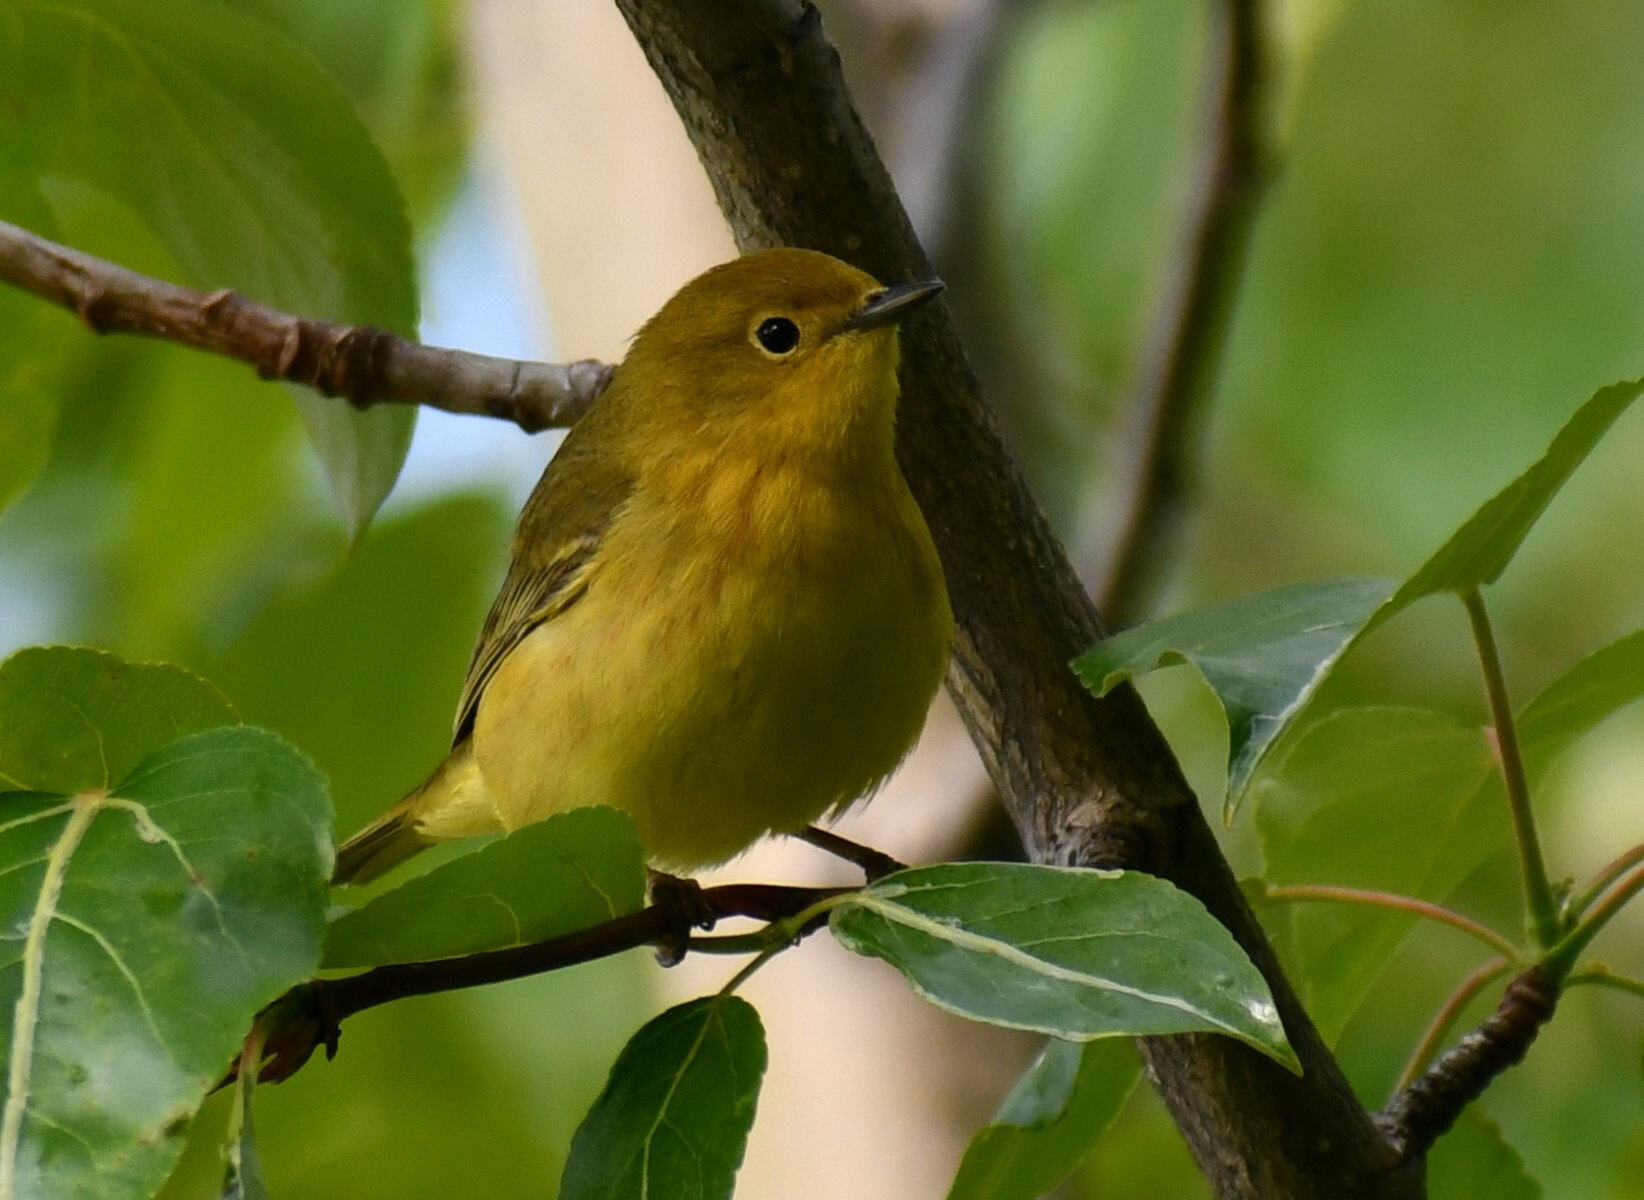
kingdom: Animalia
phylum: Chordata
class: Aves
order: Passeriformes
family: Parulidae
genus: Setophaga
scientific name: Setophaga petechia
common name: Yellow warbler
